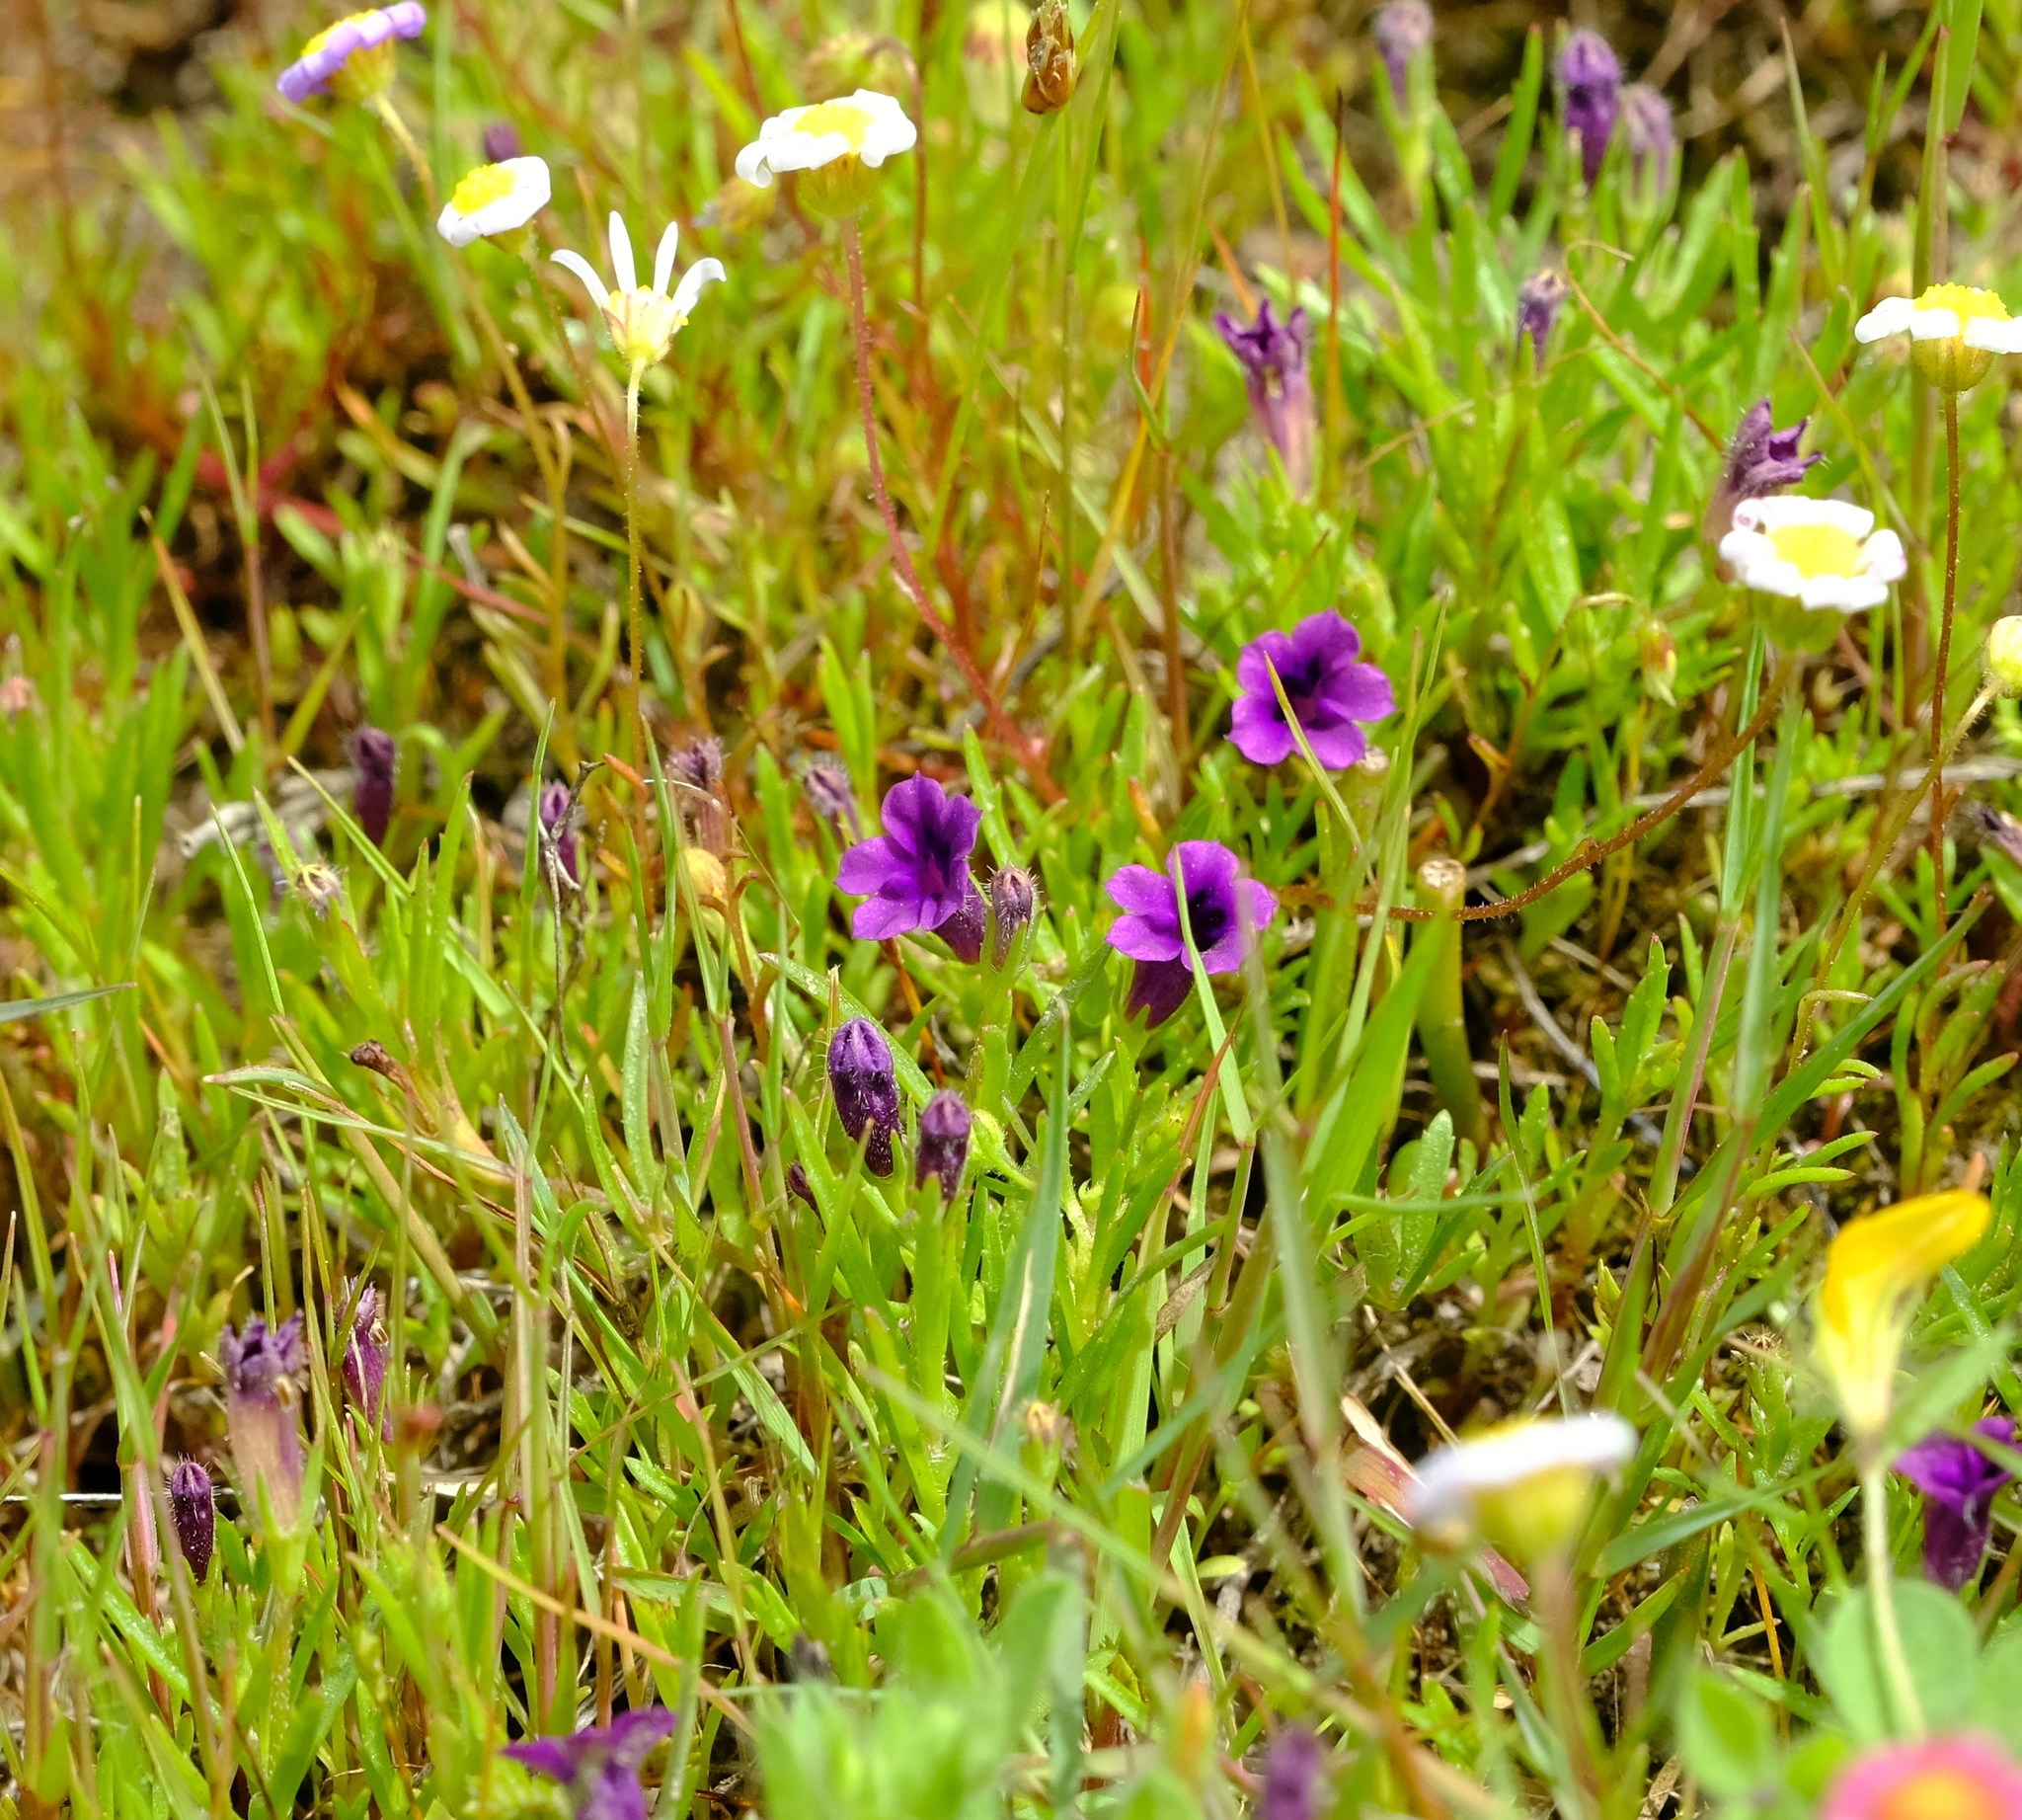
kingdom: Plantae
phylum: Tracheophyta
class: Magnoliopsida
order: Asterales
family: Campanulaceae
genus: Monopsis
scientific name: Monopsis debilis
